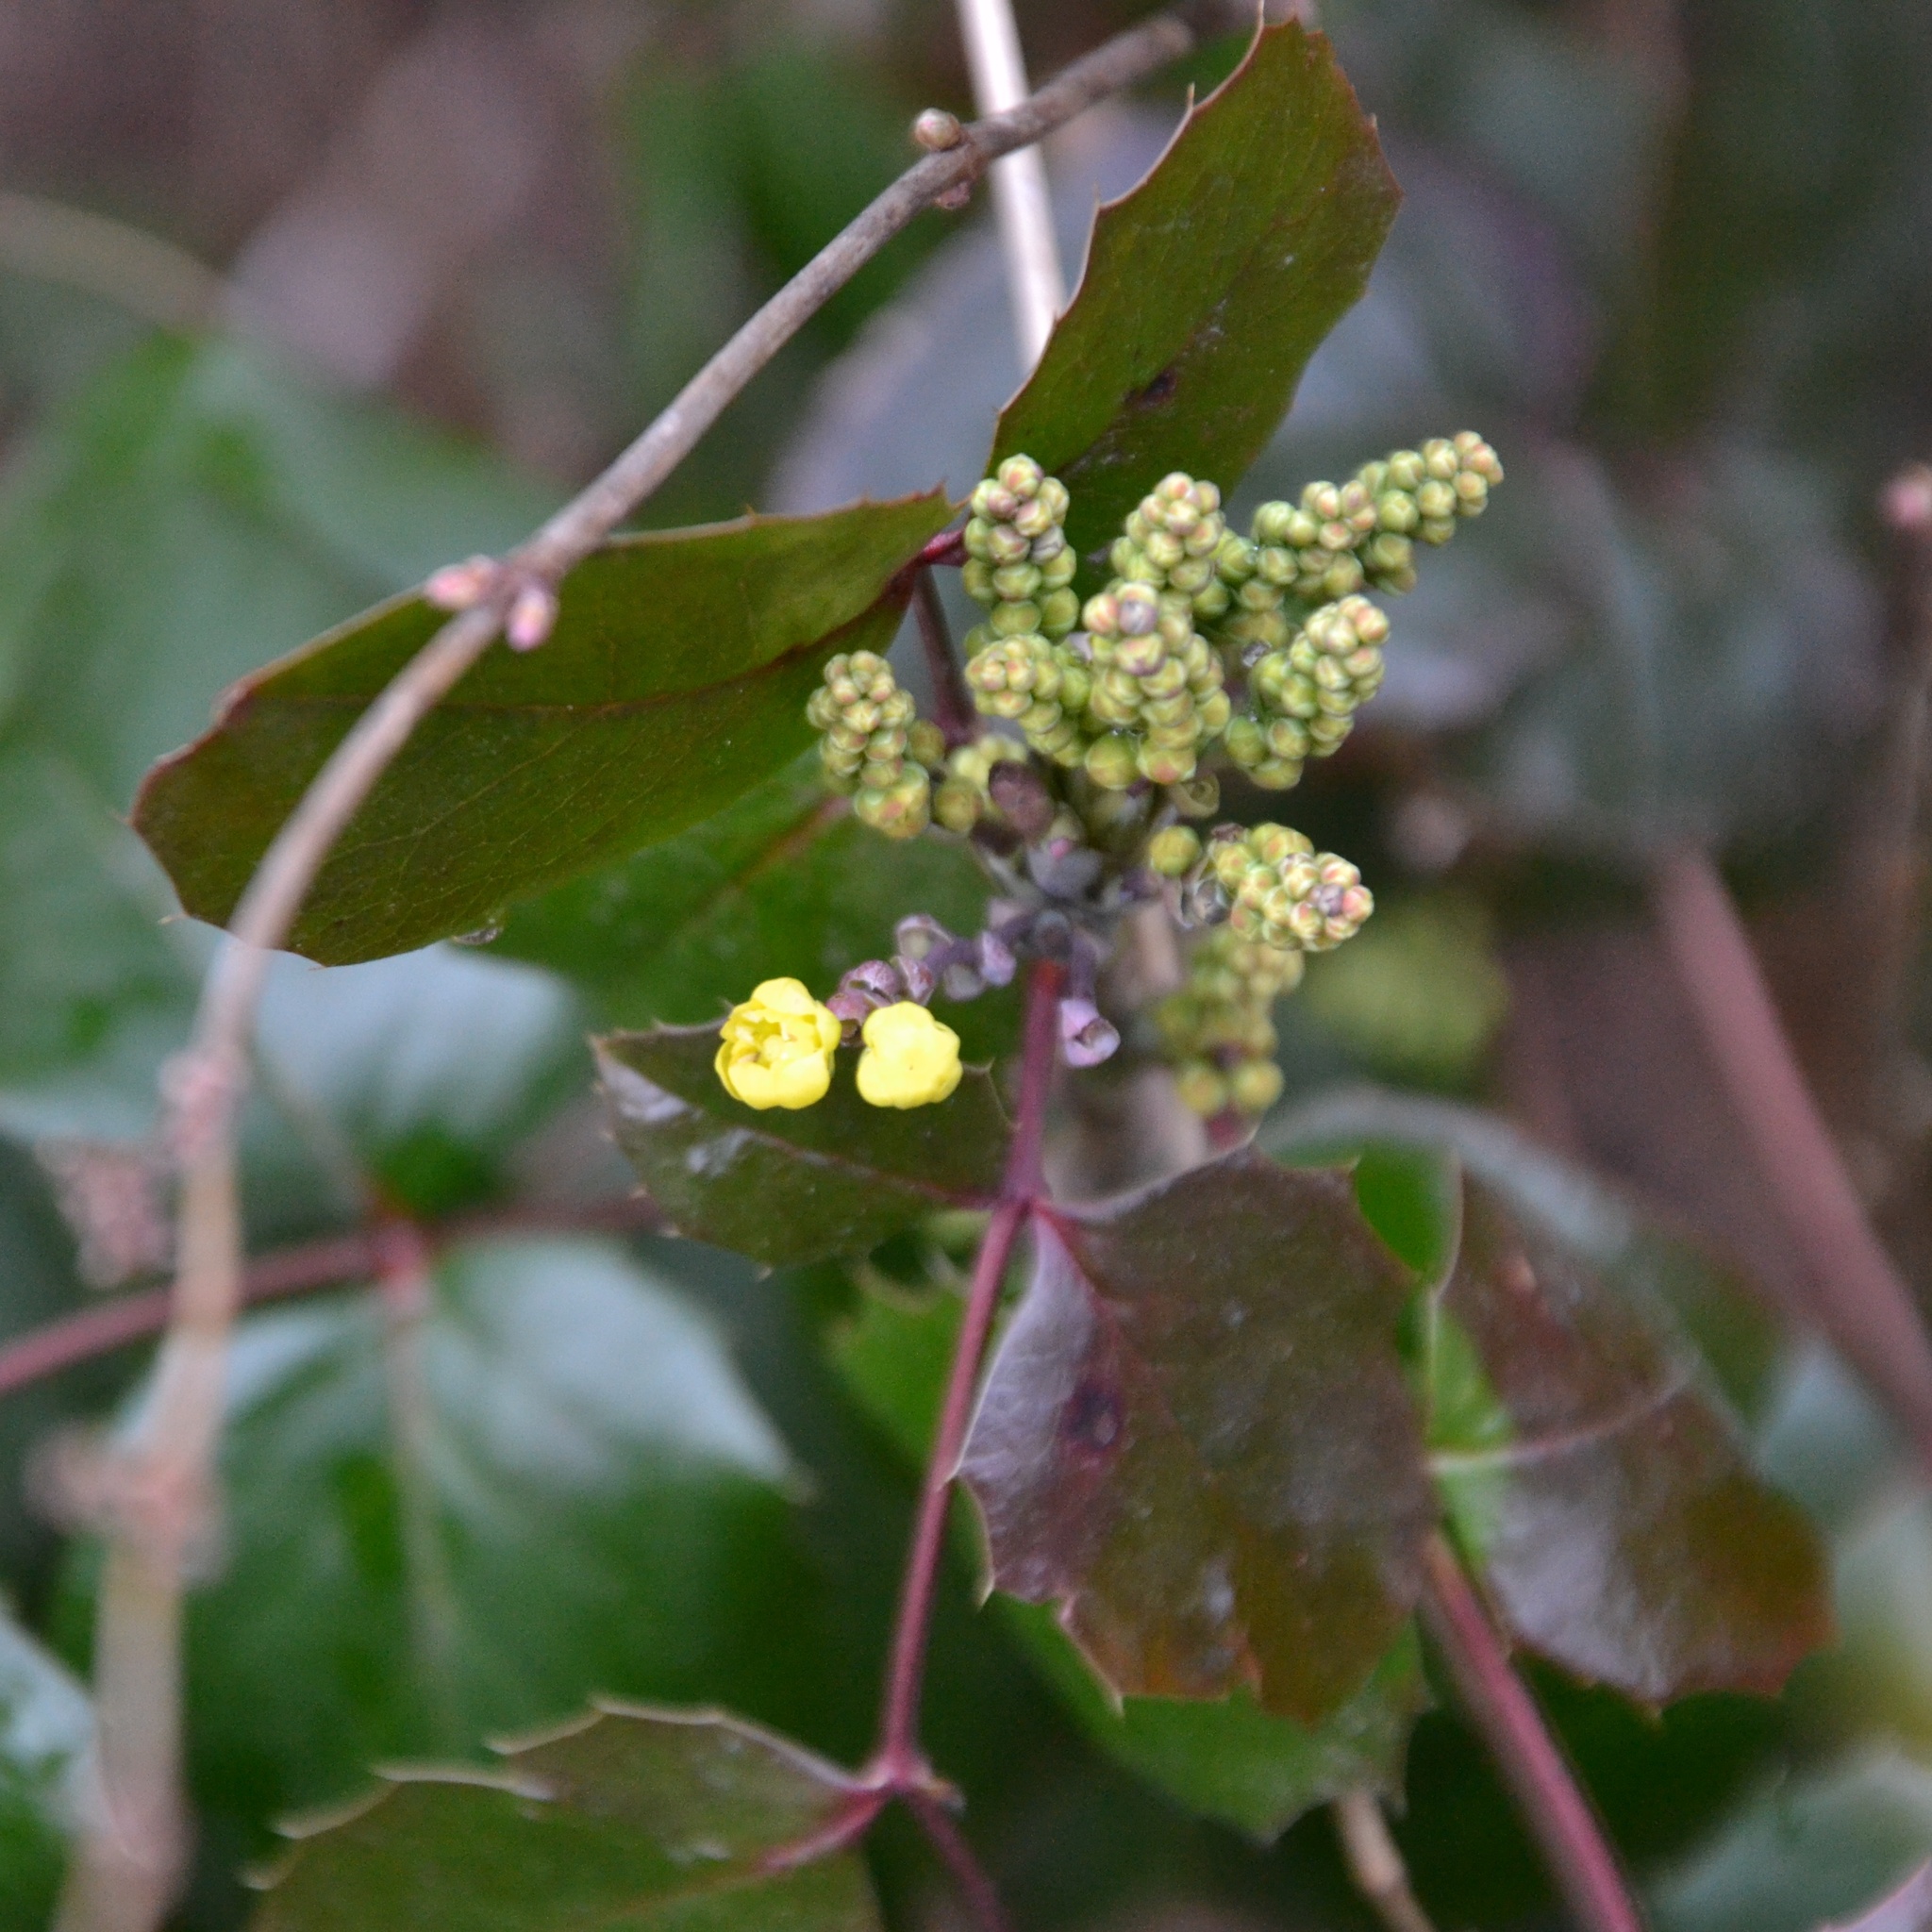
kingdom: Plantae
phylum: Tracheophyta
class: Magnoliopsida
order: Ranunculales
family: Berberidaceae
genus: Mahonia
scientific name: Mahonia aquifolium
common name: Oregon-grape
